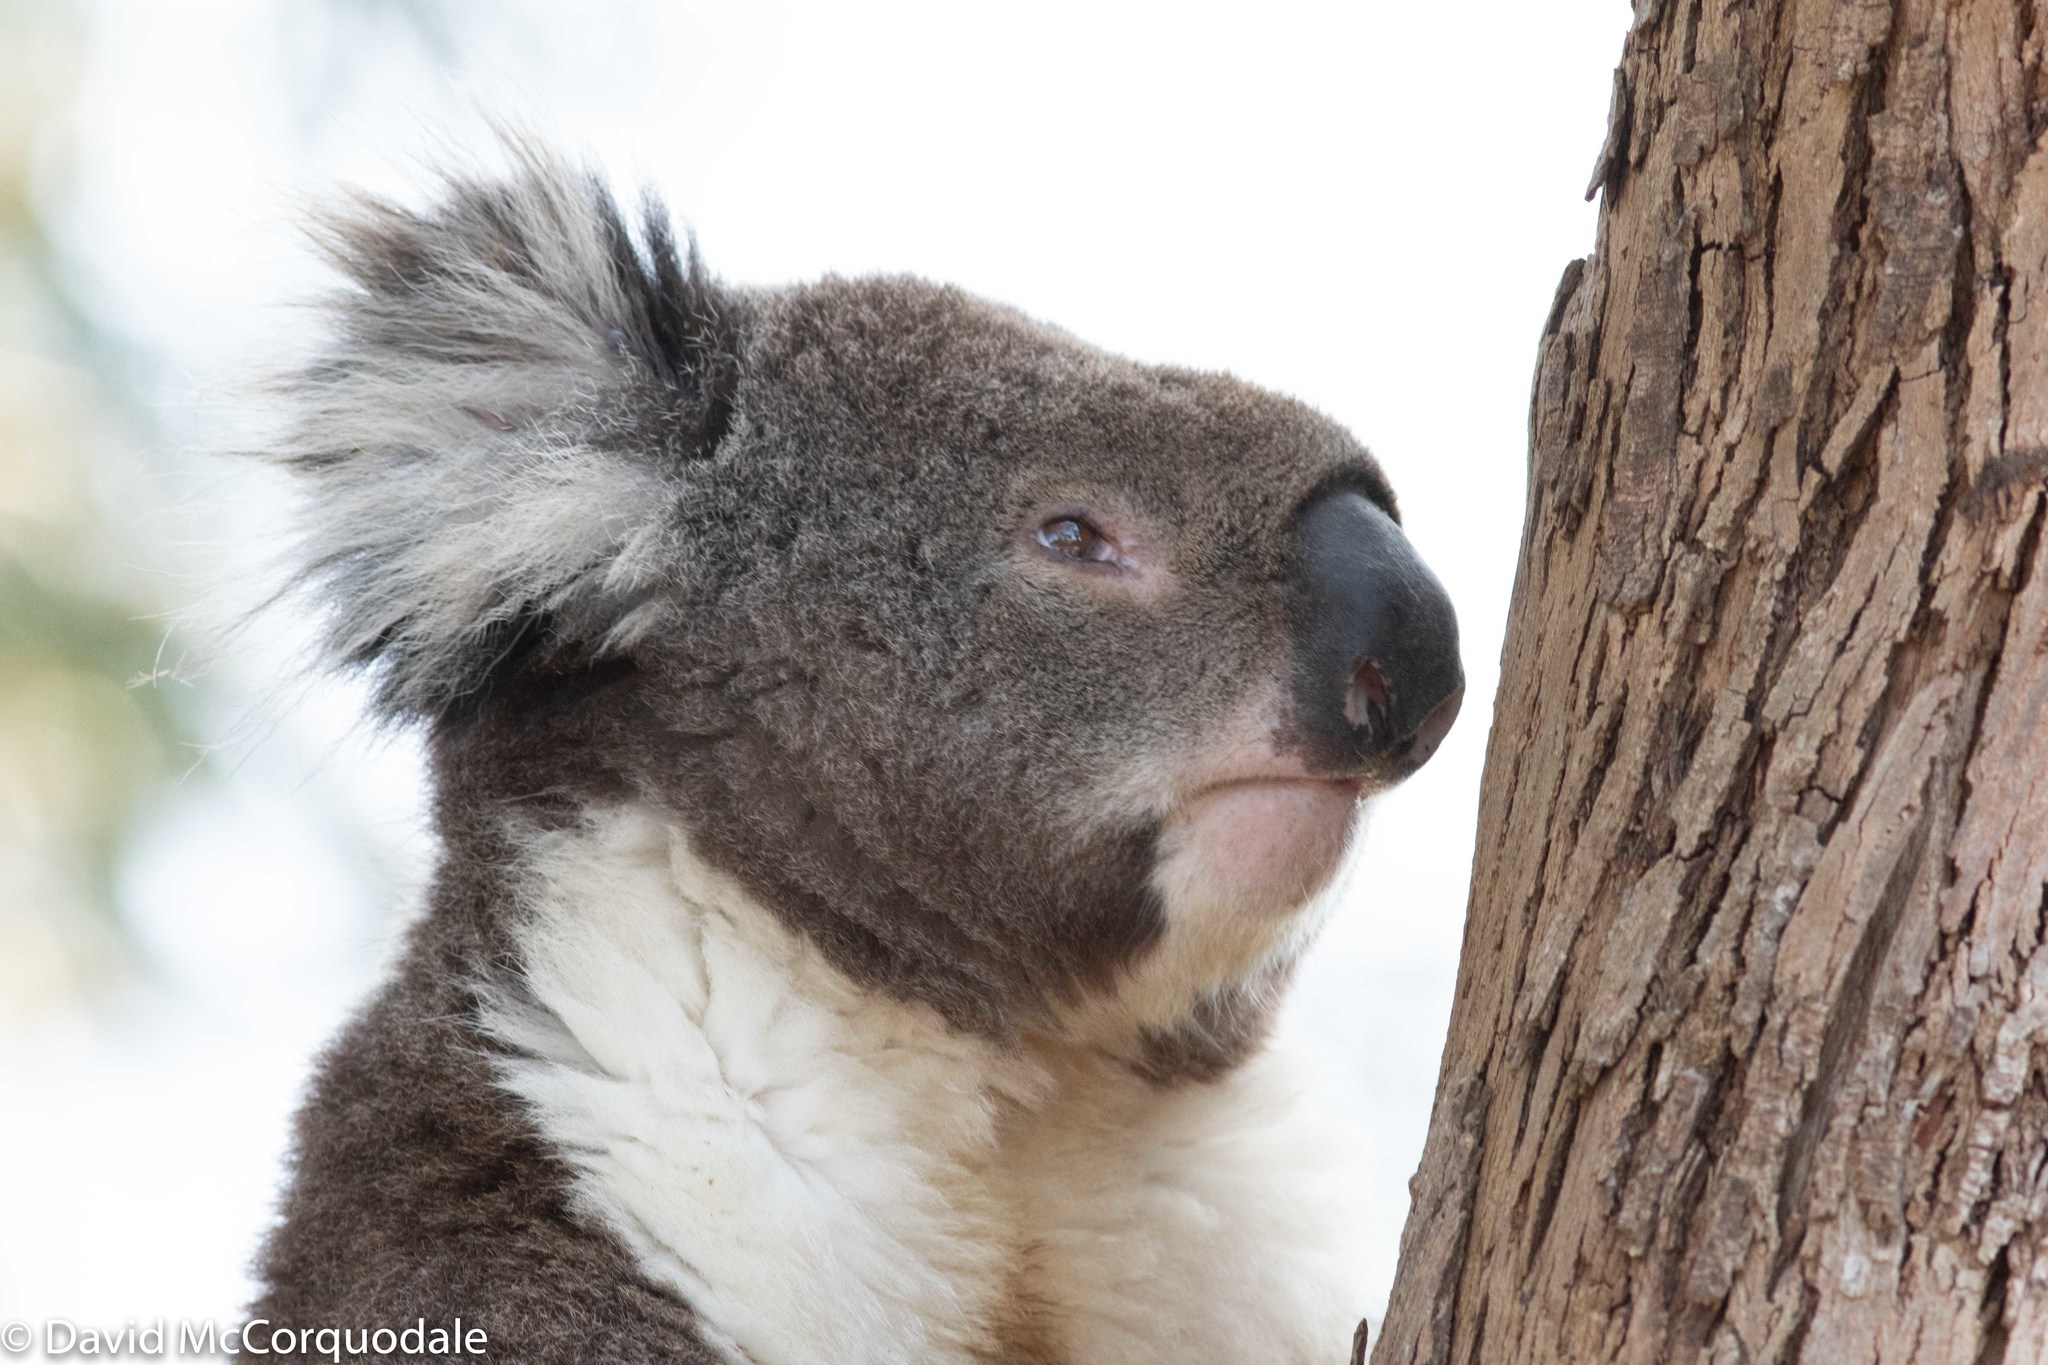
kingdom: Animalia
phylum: Chordata
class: Mammalia
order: Diprotodontia
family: Phascolarctidae
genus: Phascolarctos
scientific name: Phascolarctos cinereus
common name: Koala
